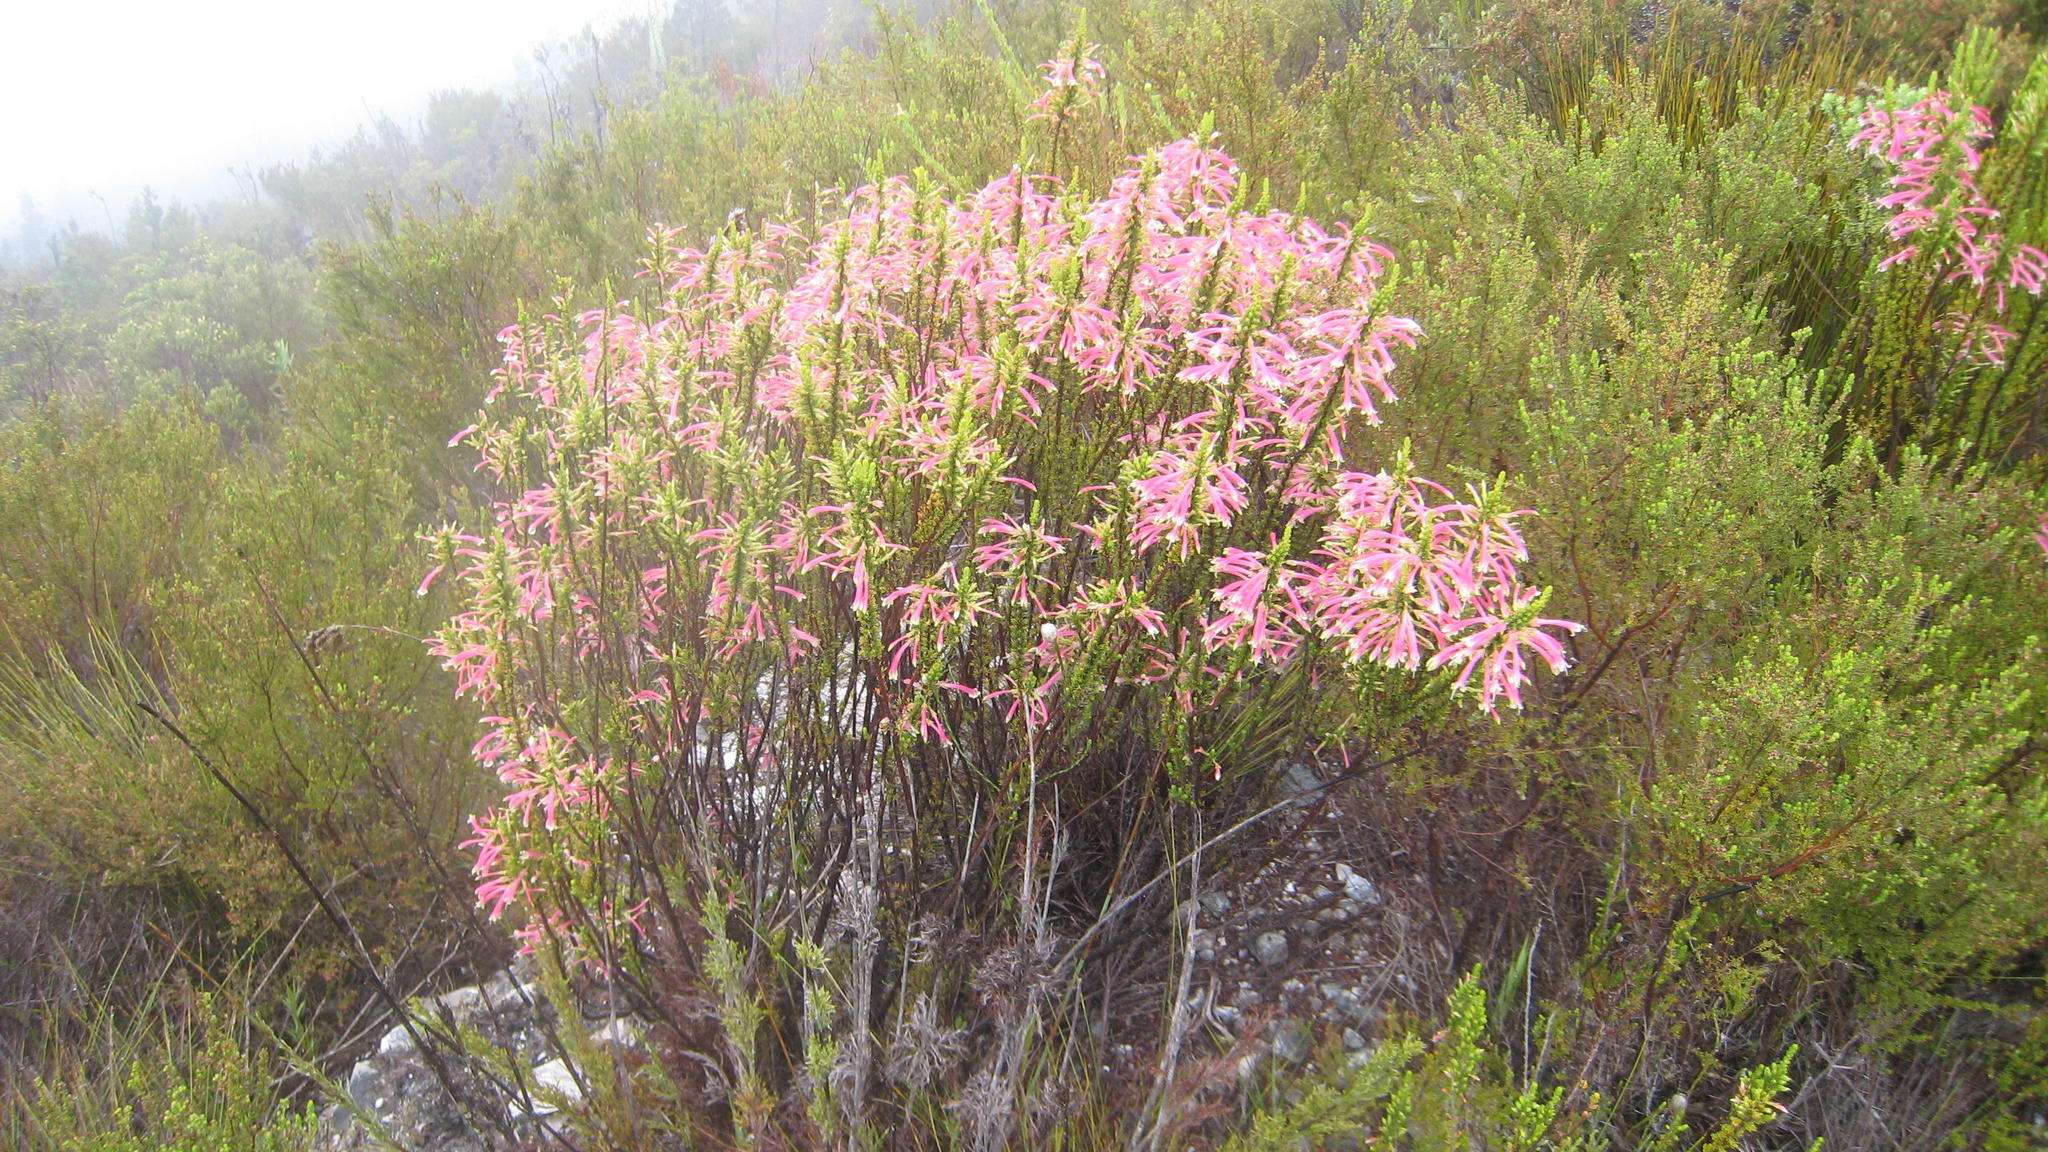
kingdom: Plantae
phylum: Tracheophyta
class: Magnoliopsida
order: Ericales
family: Ericaceae
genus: Erica
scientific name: Erica densifolia
